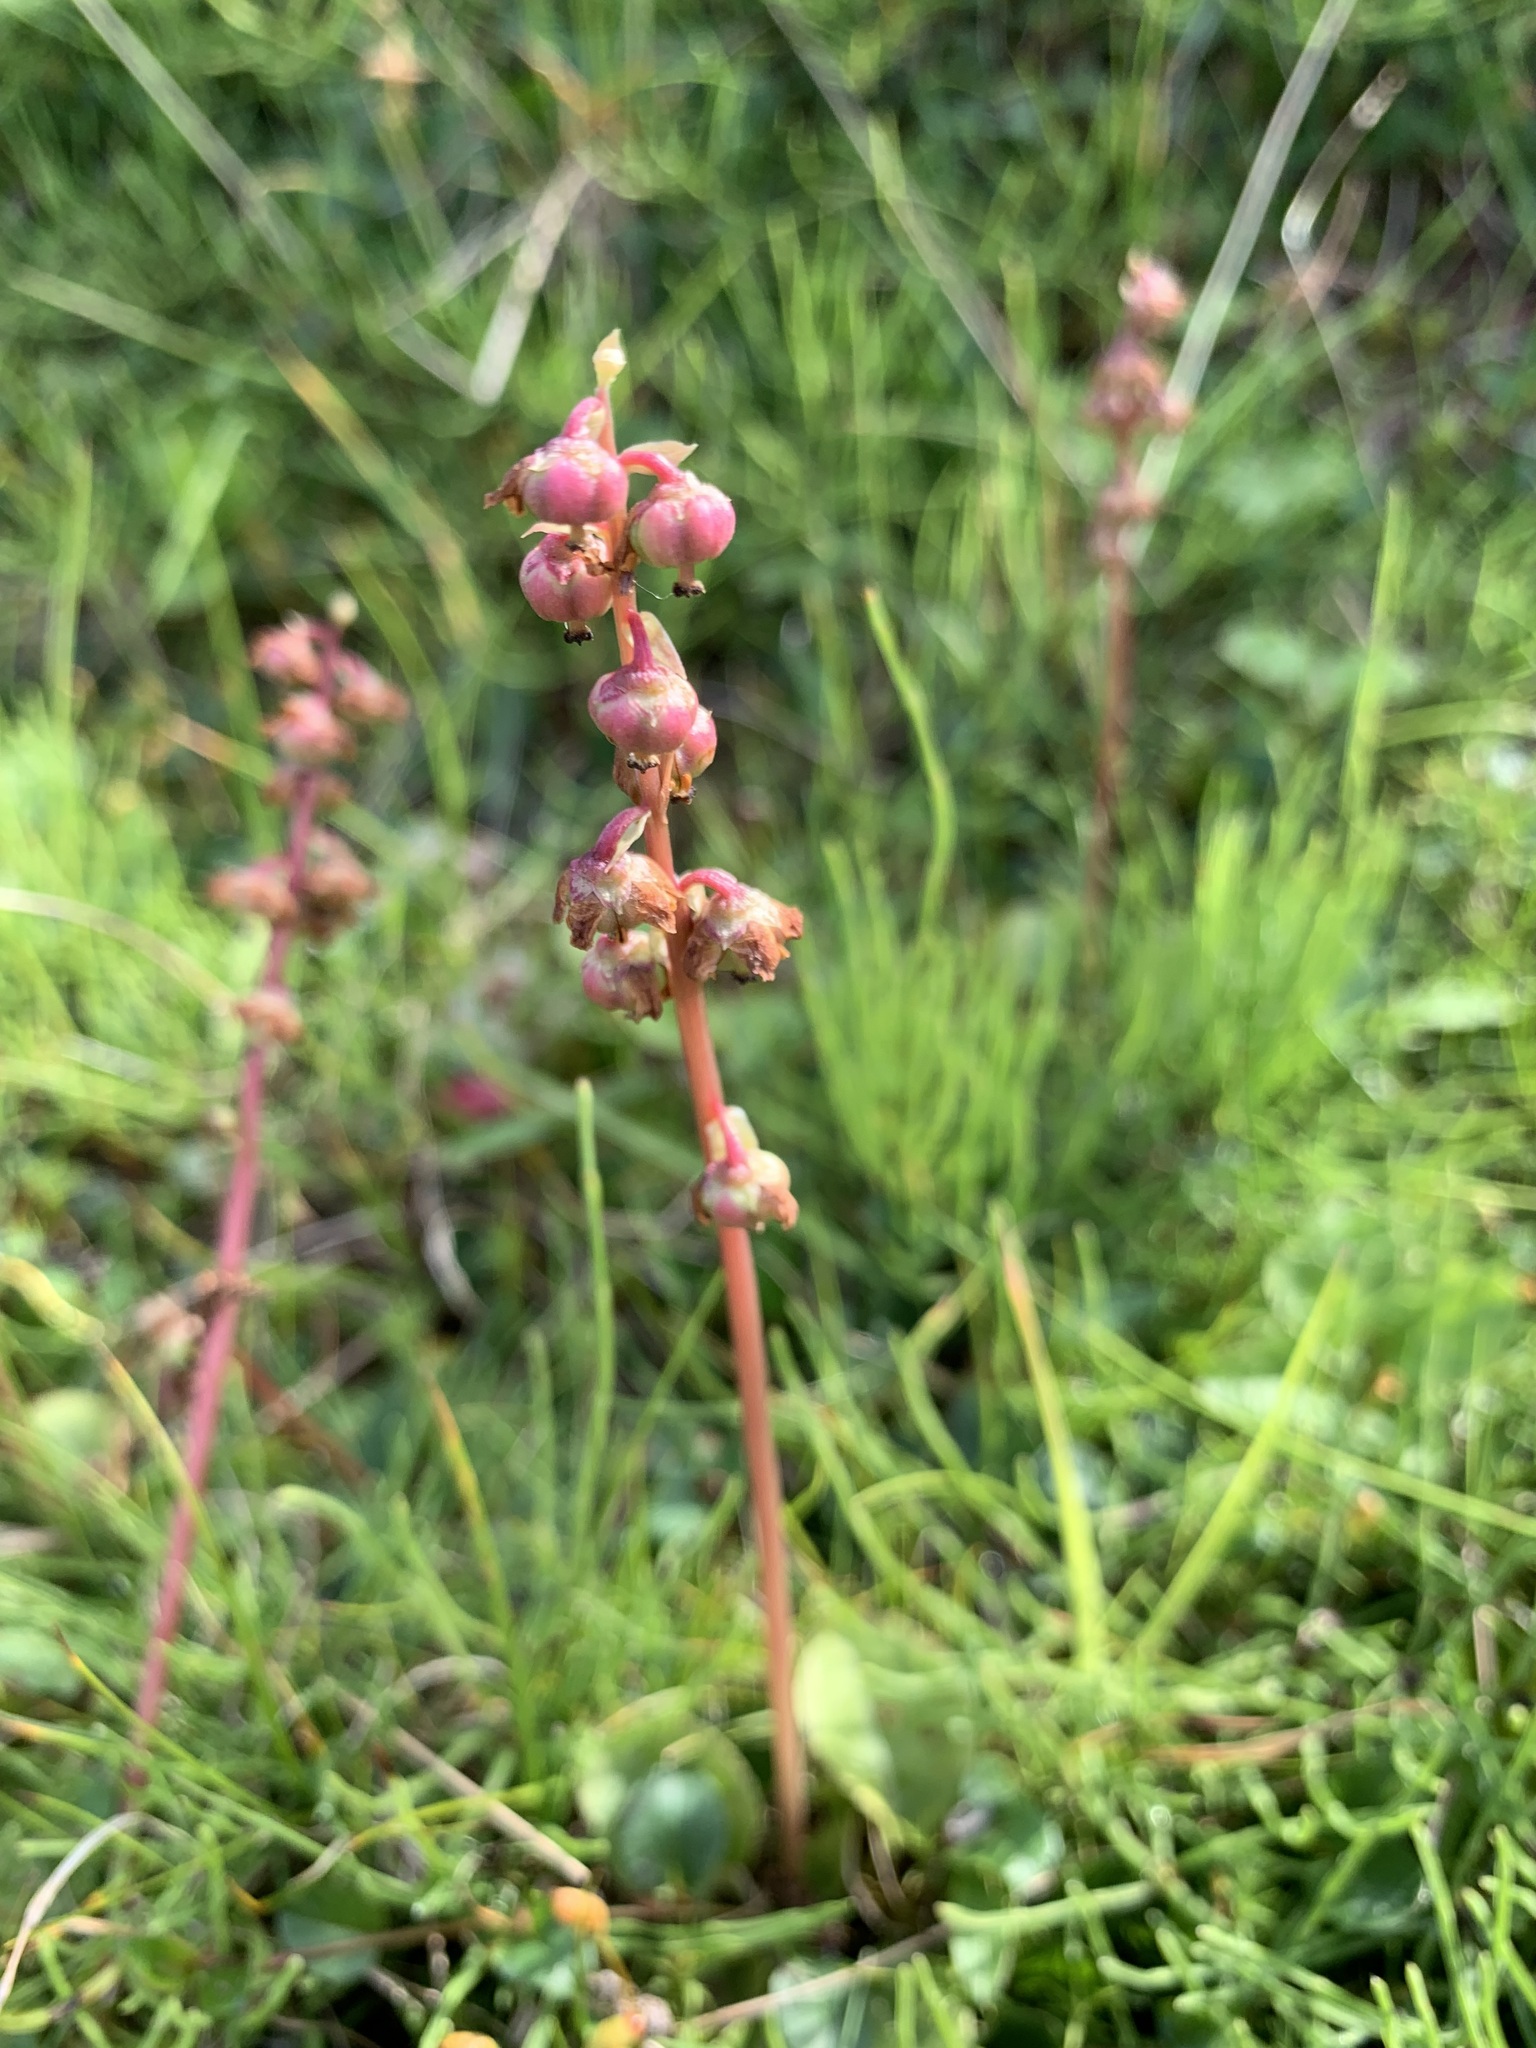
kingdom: Plantae
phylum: Tracheophyta
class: Magnoliopsida
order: Ericales
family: Ericaceae
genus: Pyrola
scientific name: Pyrola grandiflora
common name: Arctic pyrola
